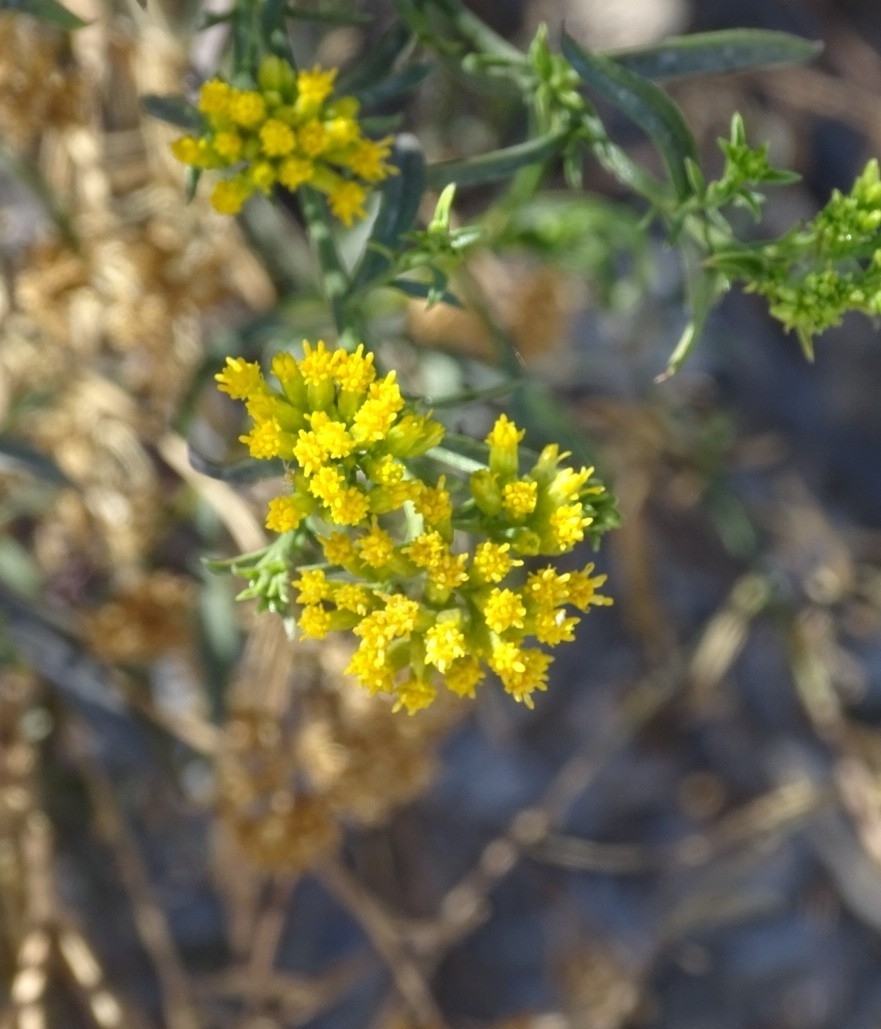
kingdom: Plantae
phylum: Tracheophyta
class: Magnoliopsida
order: Asterales
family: Asteraceae
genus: Gymnosperma
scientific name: Gymnosperma glutinosum
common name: Gumhead
